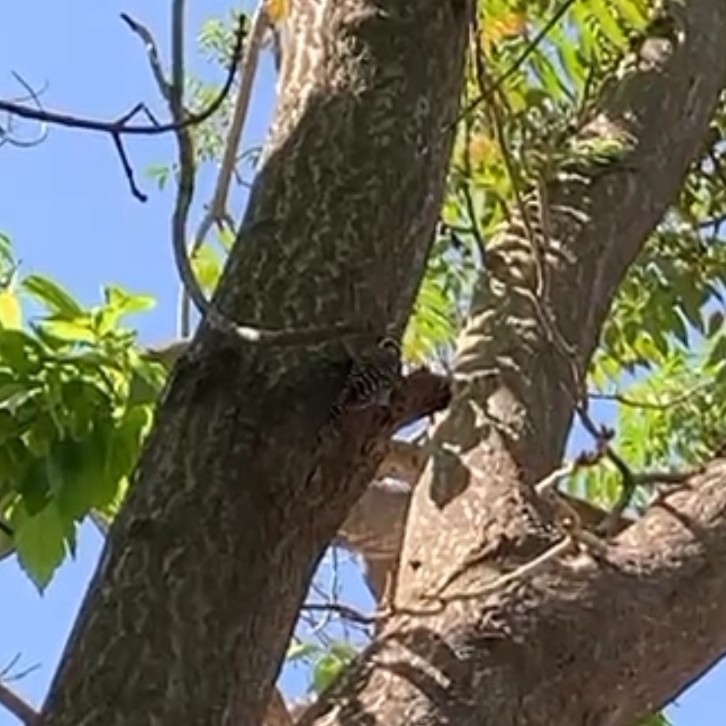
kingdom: Animalia
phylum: Chordata
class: Aves
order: Piciformes
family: Picidae
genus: Veniliornis
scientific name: Veniliornis lignarius
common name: Striped woodpecker
